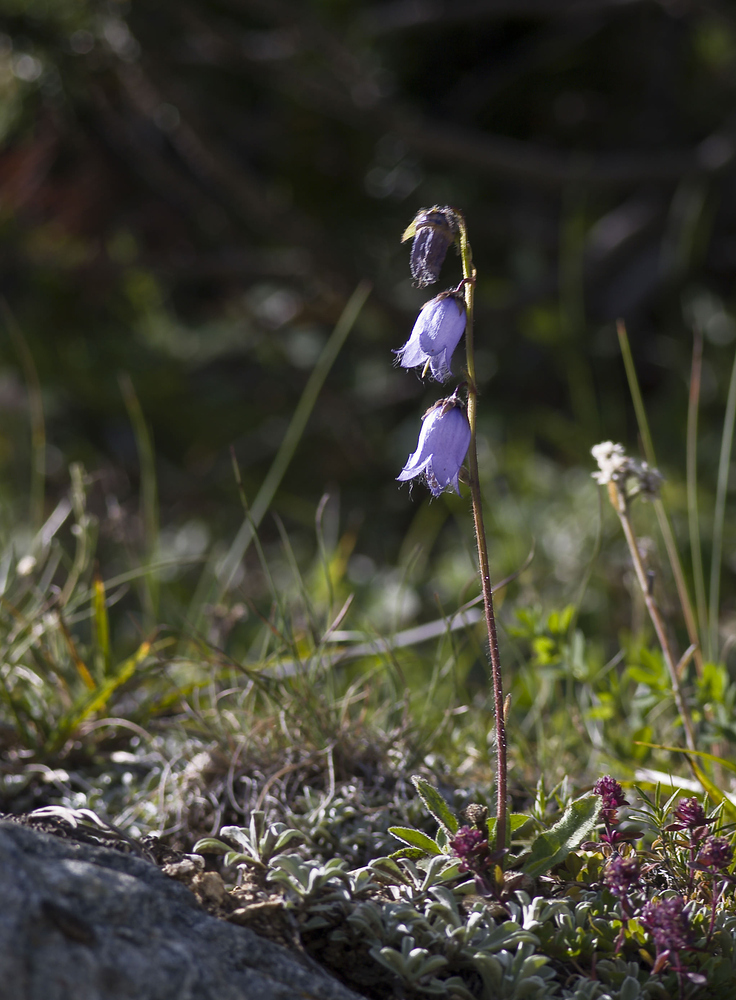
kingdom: Plantae
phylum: Tracheophyta
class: Magnoliopsida
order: Asterales
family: Campanulaceae
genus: Campanula
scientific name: Campanula barbata
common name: Bearded bellflower
